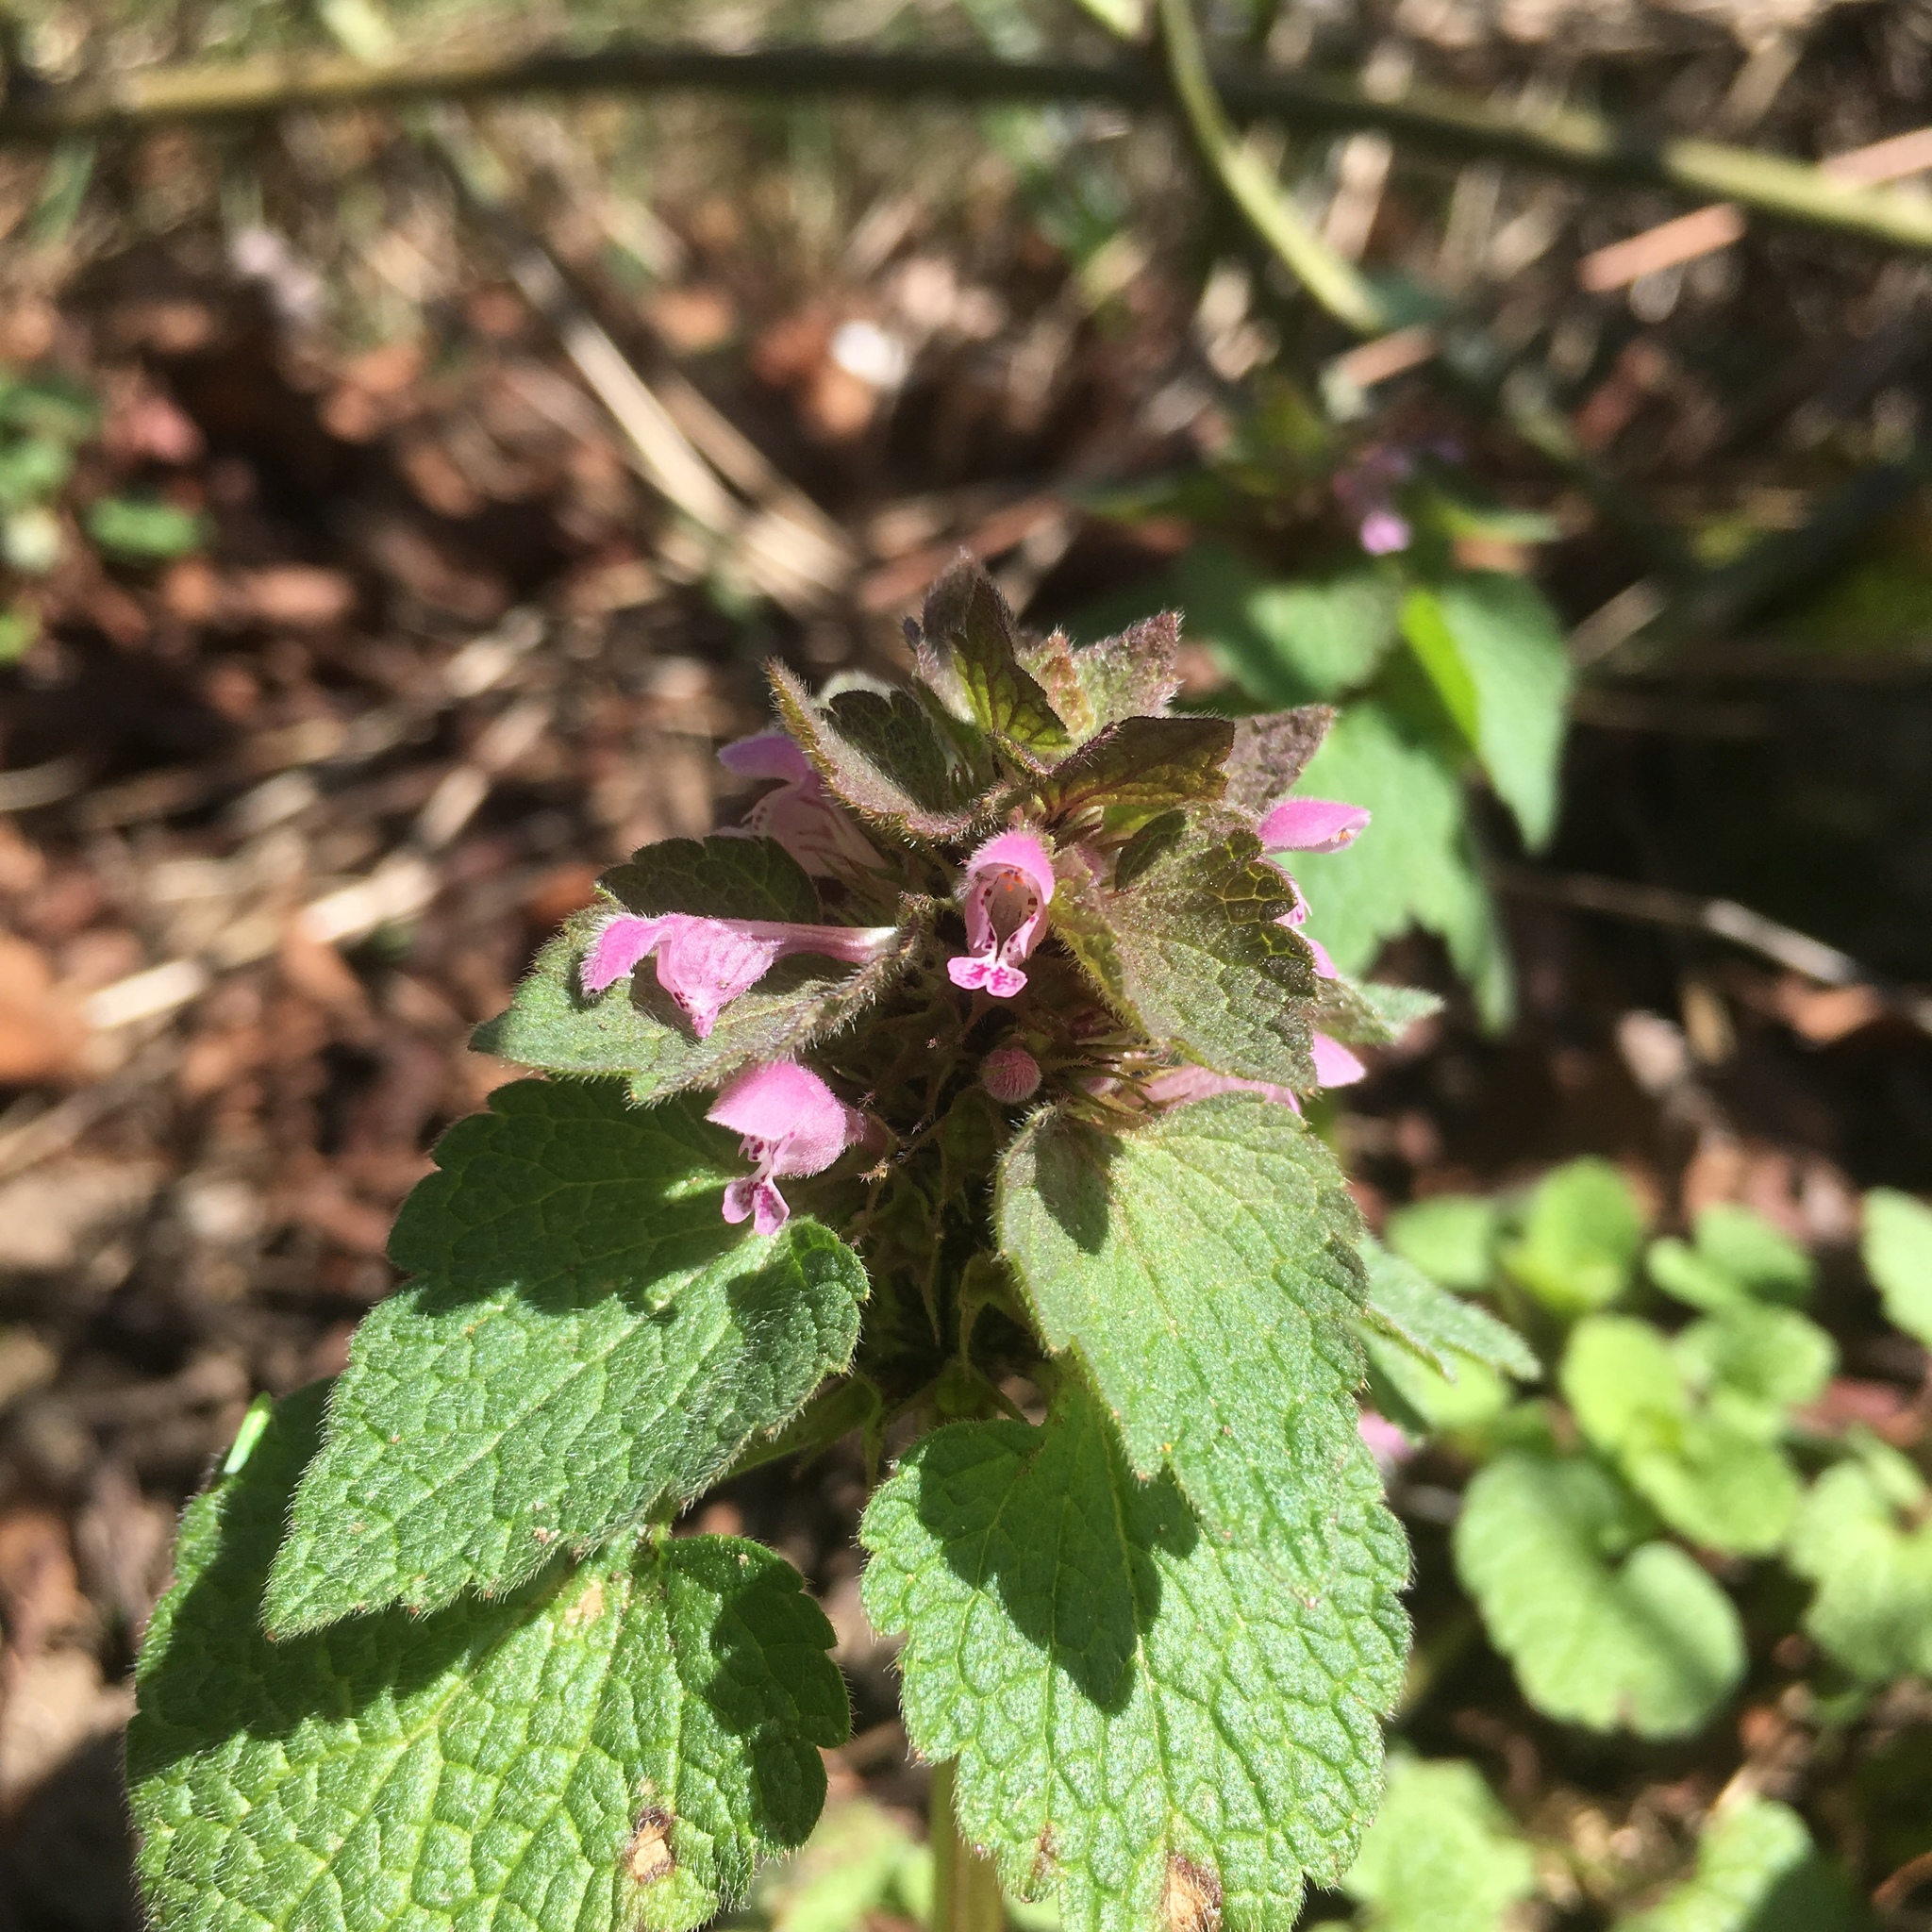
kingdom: Plantae
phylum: Tracheophyta
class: Magnoliopsida
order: Lamiales
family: Lamiaceae
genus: Lamium
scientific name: Lamium purpureum
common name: Red dead-nettle
